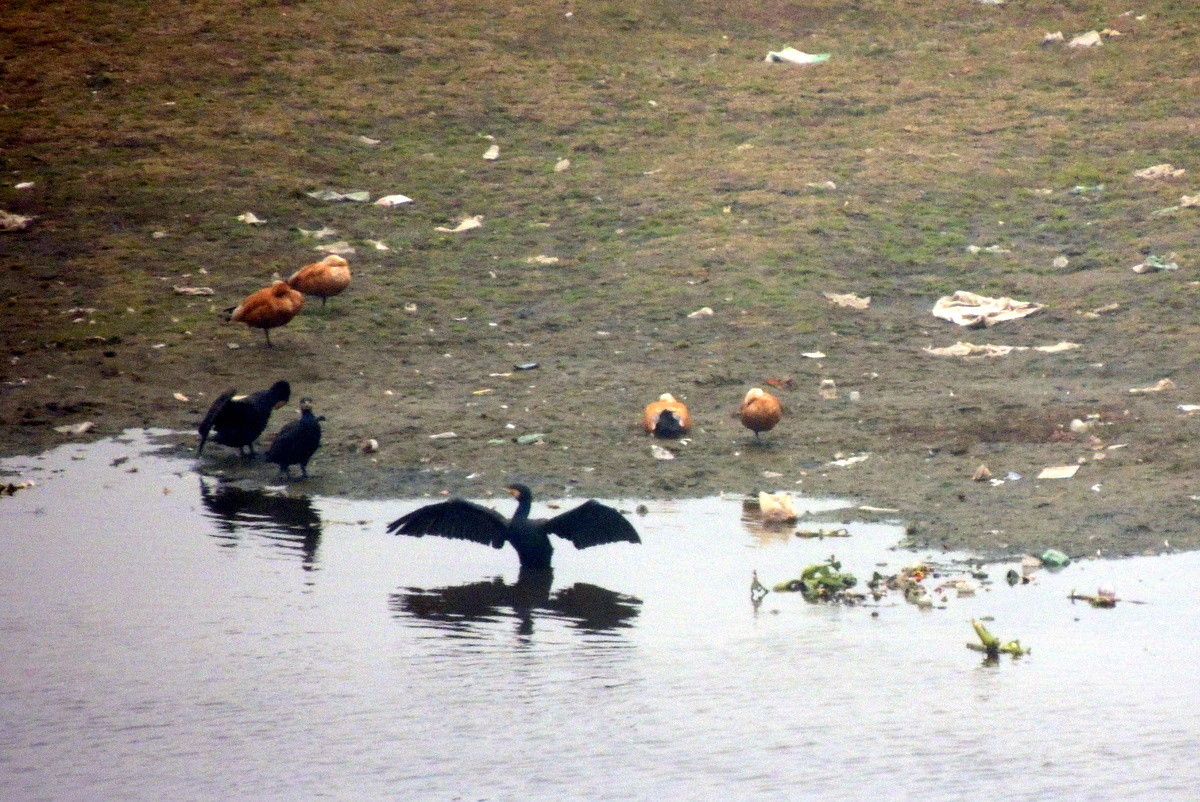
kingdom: Animalia
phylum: Chordata
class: Aves
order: Anseriformes
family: Anatidae
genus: Tadorna
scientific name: Tadorna ferruginea
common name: Ruddy shelduck
